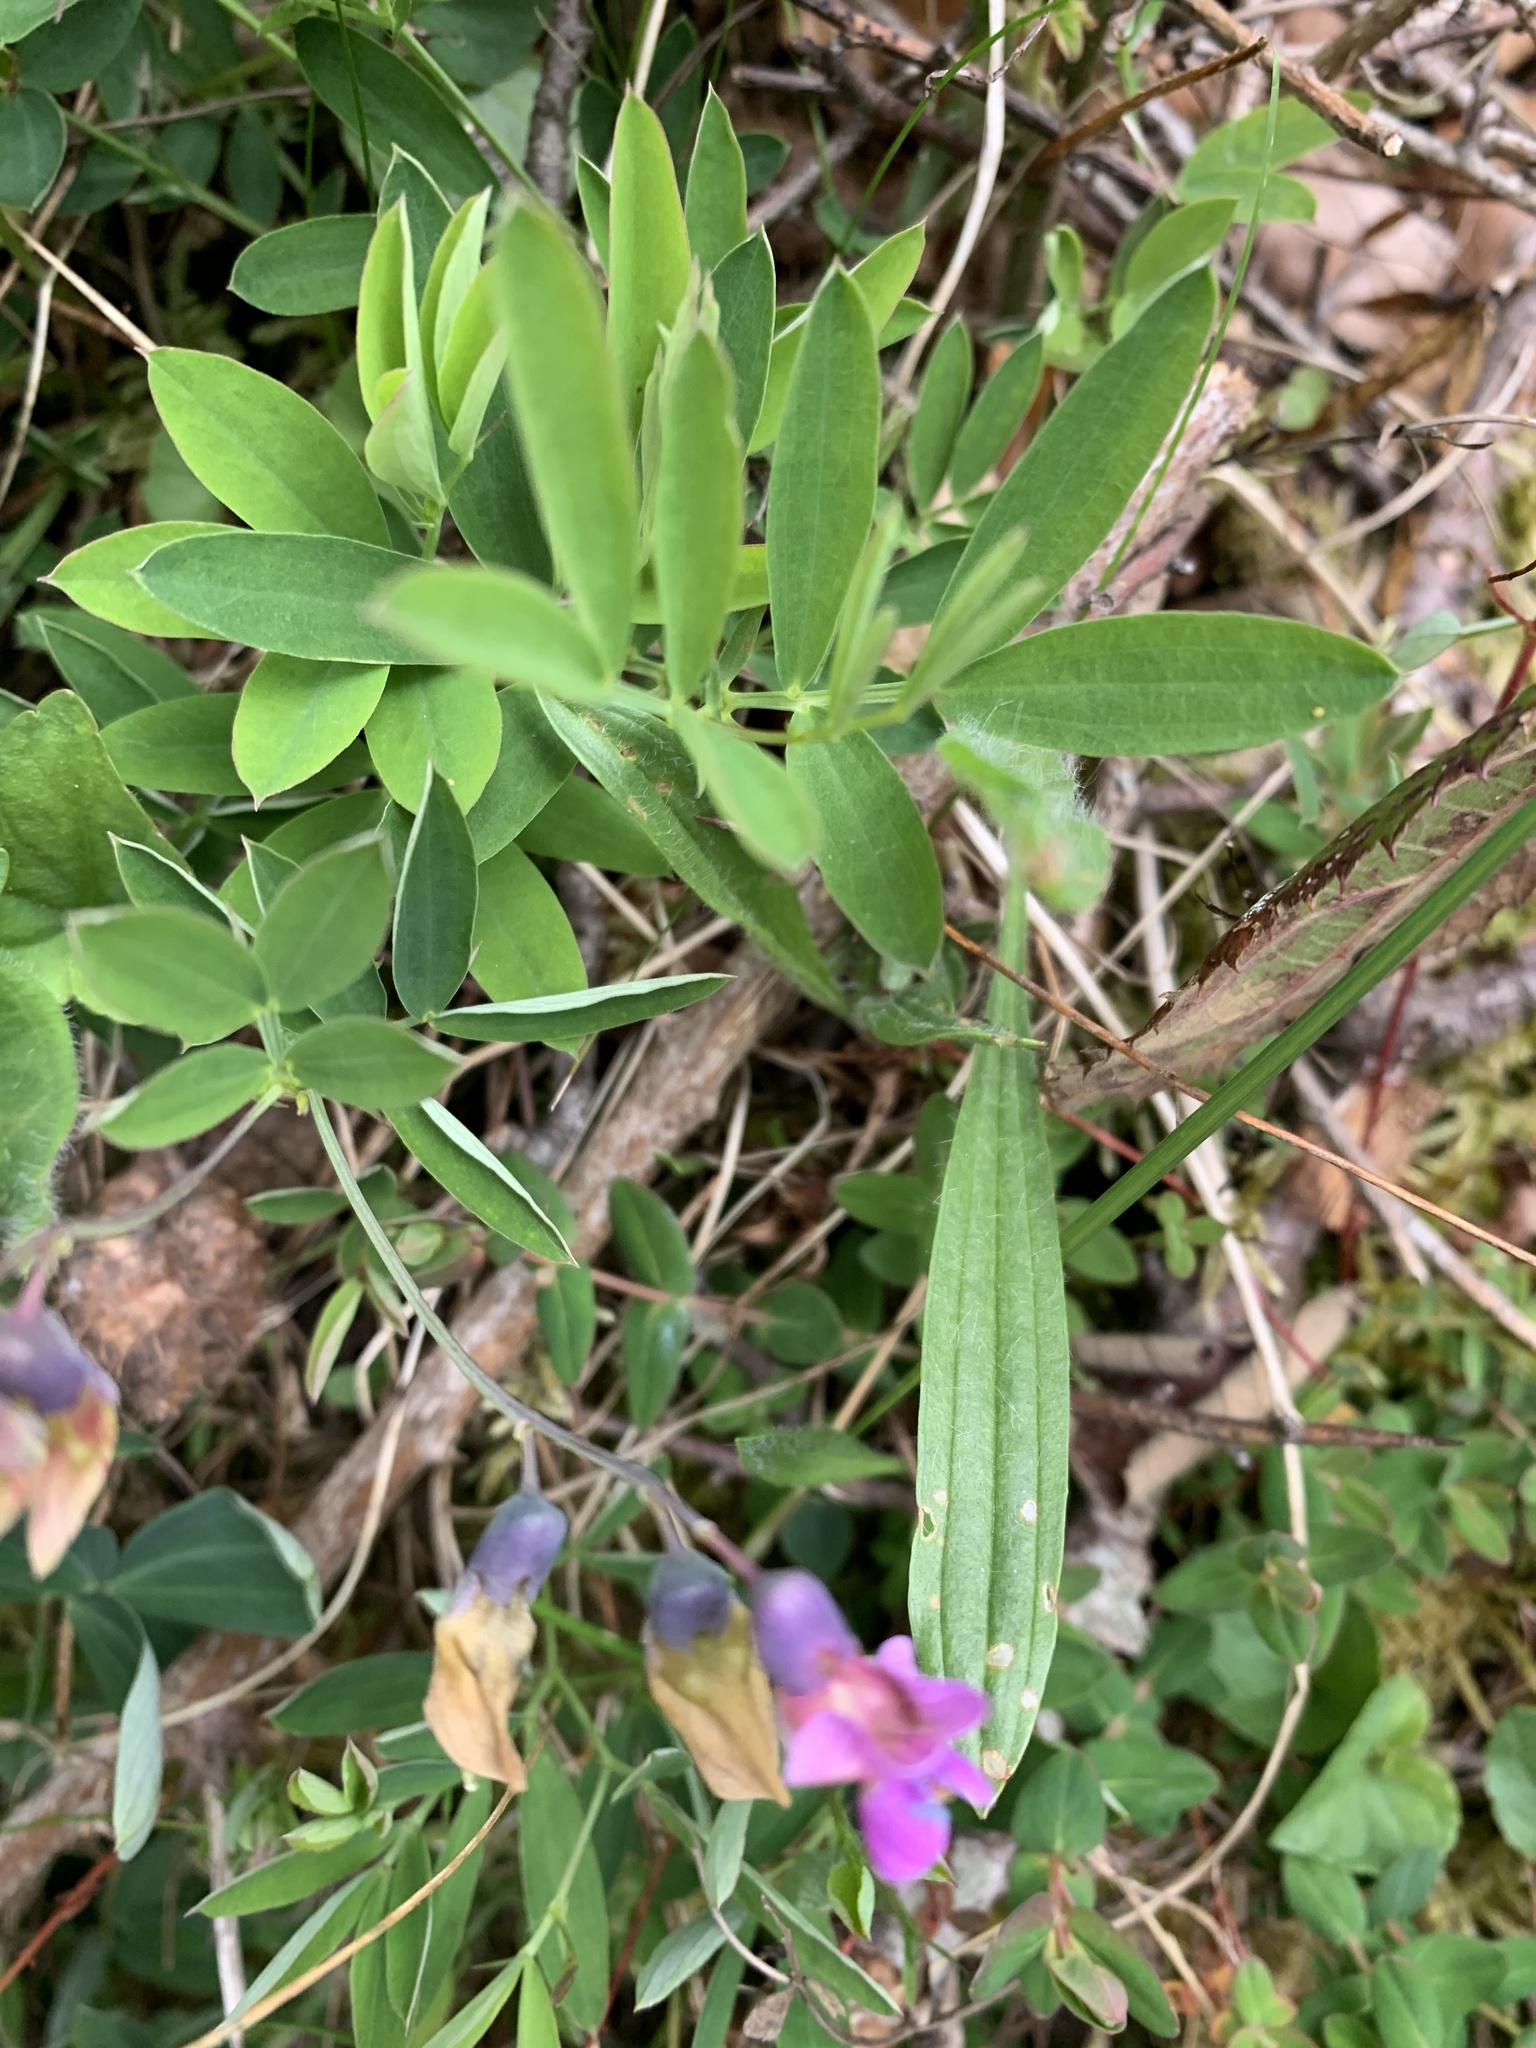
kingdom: Plantae
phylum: Tracheophyta
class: Magnoliopsida
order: Fabales
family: Fabaceae
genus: Lathyrus
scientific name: Lathyrus linifolius
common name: Bitter-vetch
